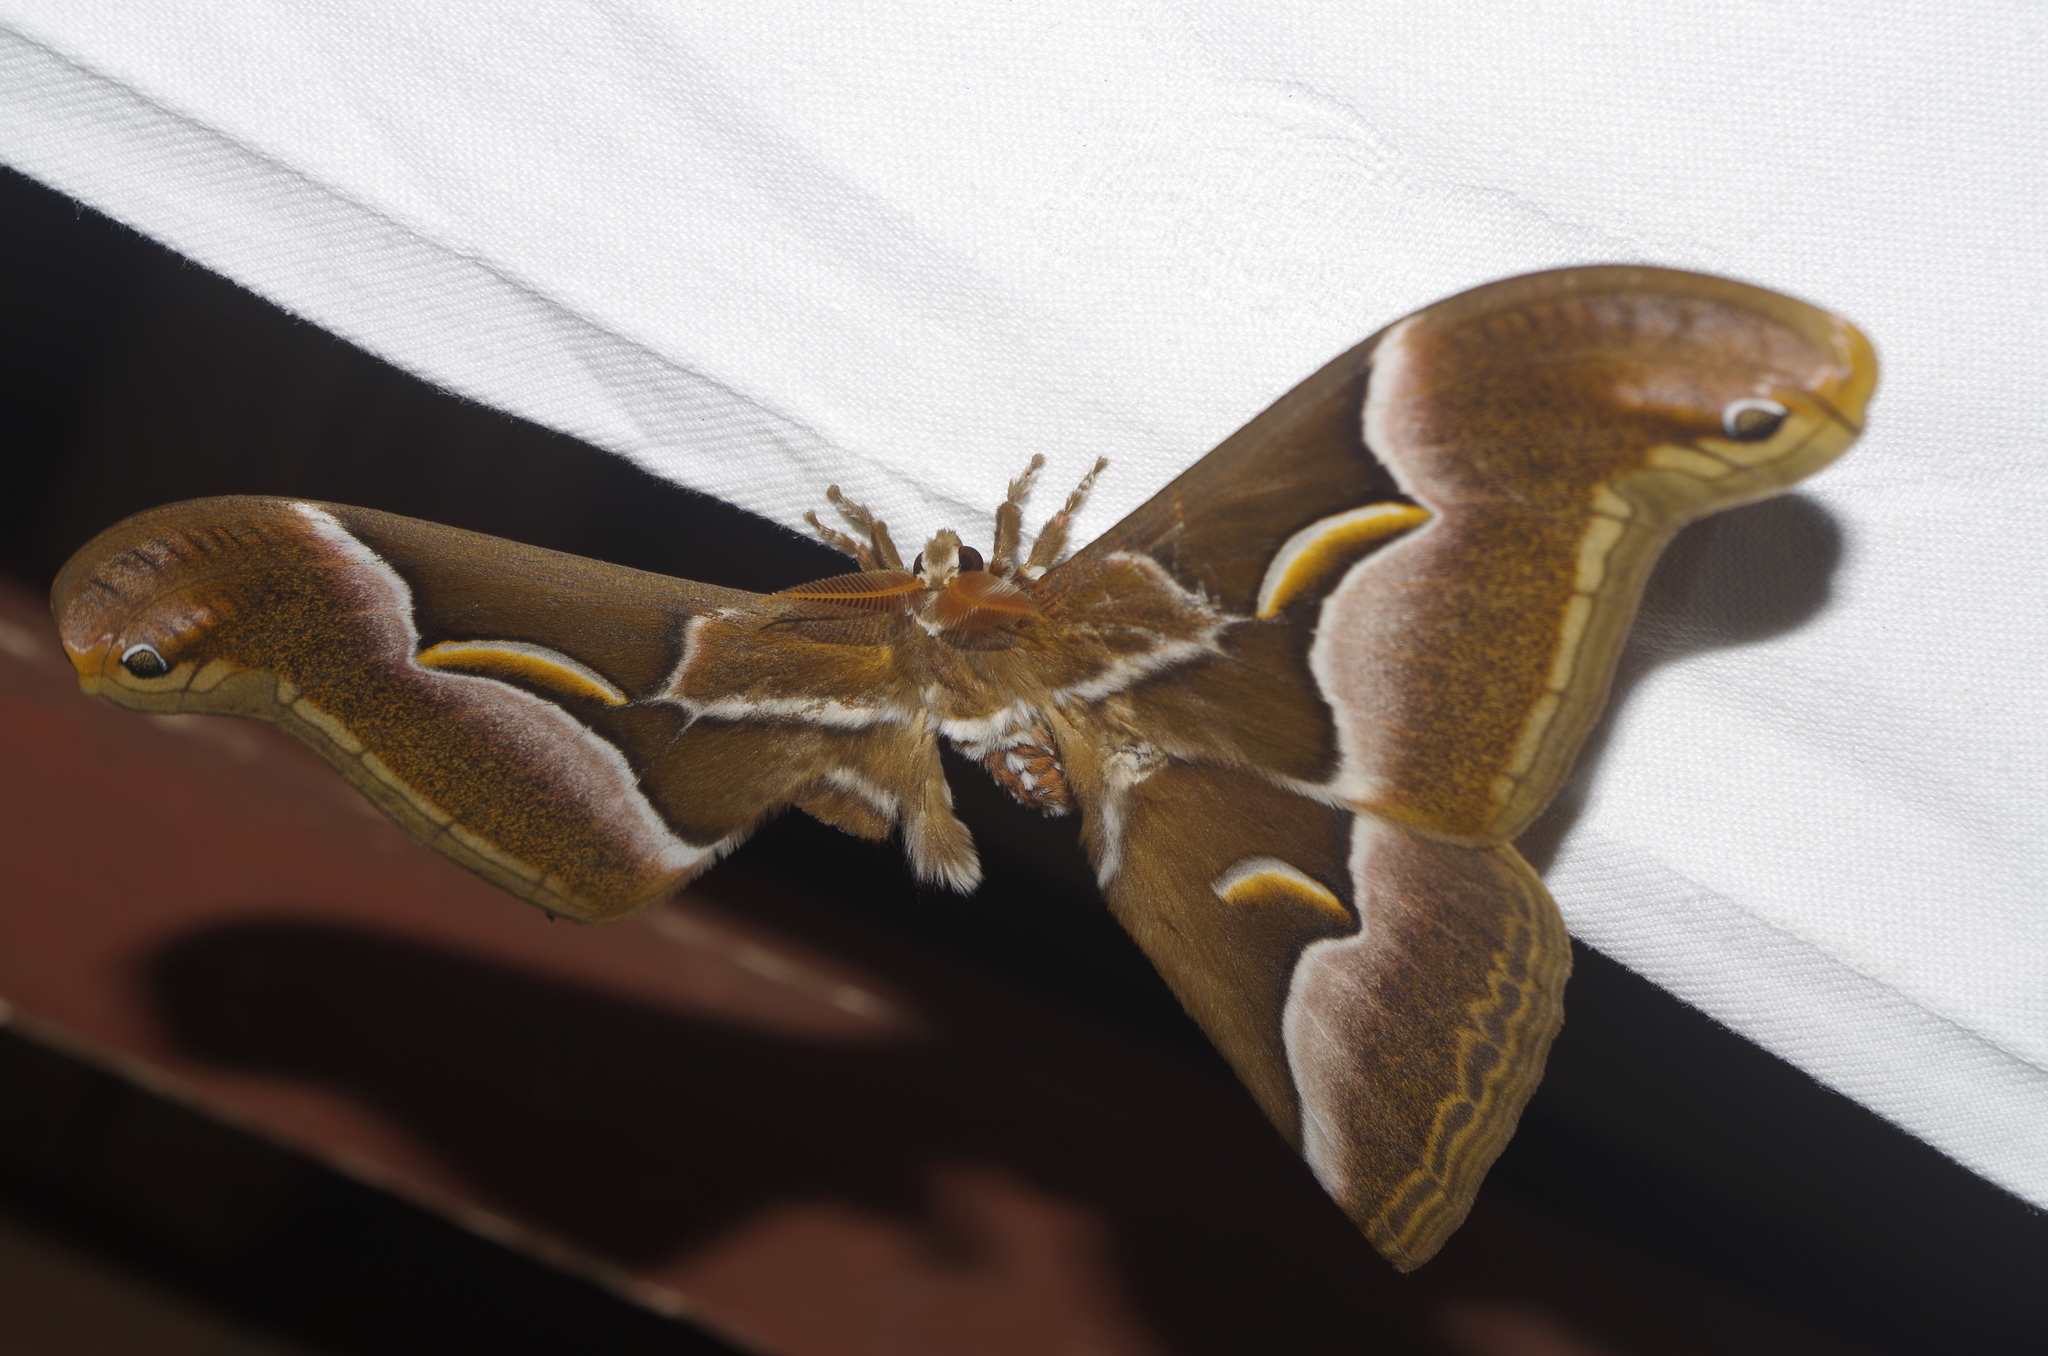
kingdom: Animalia
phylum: Arthropoda
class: Insecta
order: Lepidoptera
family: Saturniidae
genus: Samia
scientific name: Samia cynthia
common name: Ailanthus silkmoth
